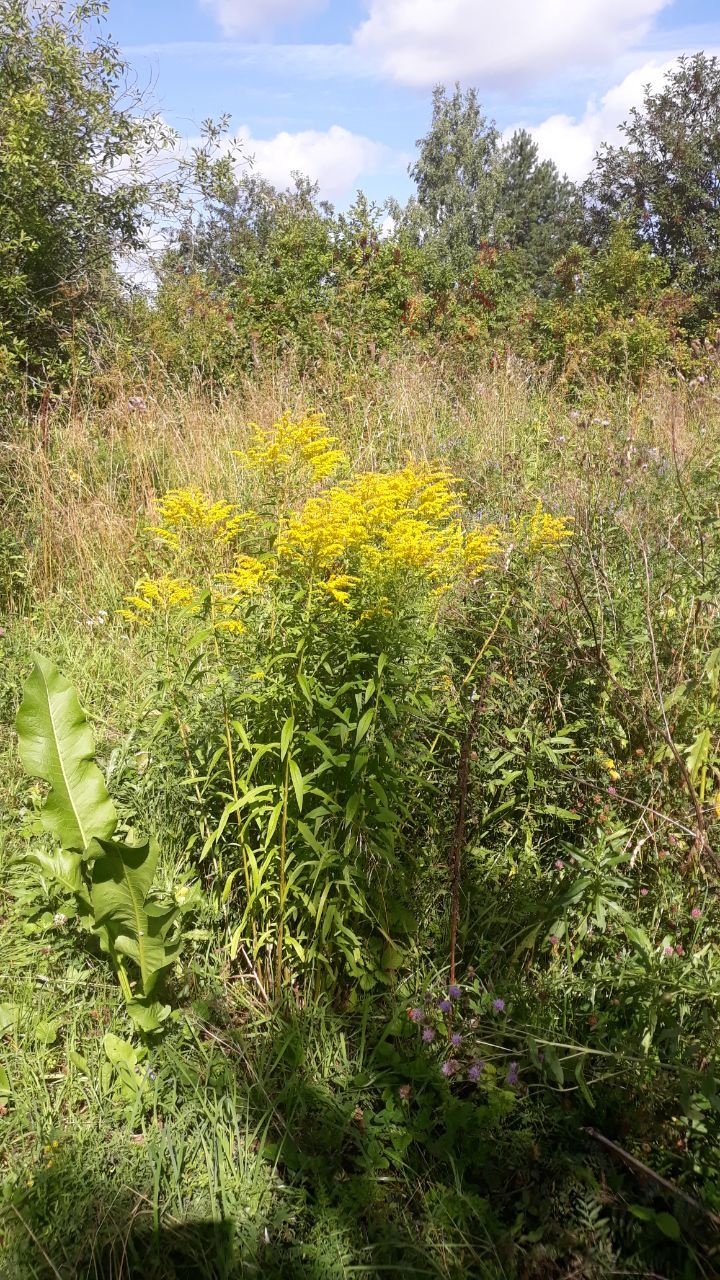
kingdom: Plantae
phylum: Tracheophyta
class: Magnoliopsida
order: Asterales
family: Asteraceae
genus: Solidago
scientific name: Solidago canadensis
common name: Canada goldenrod
